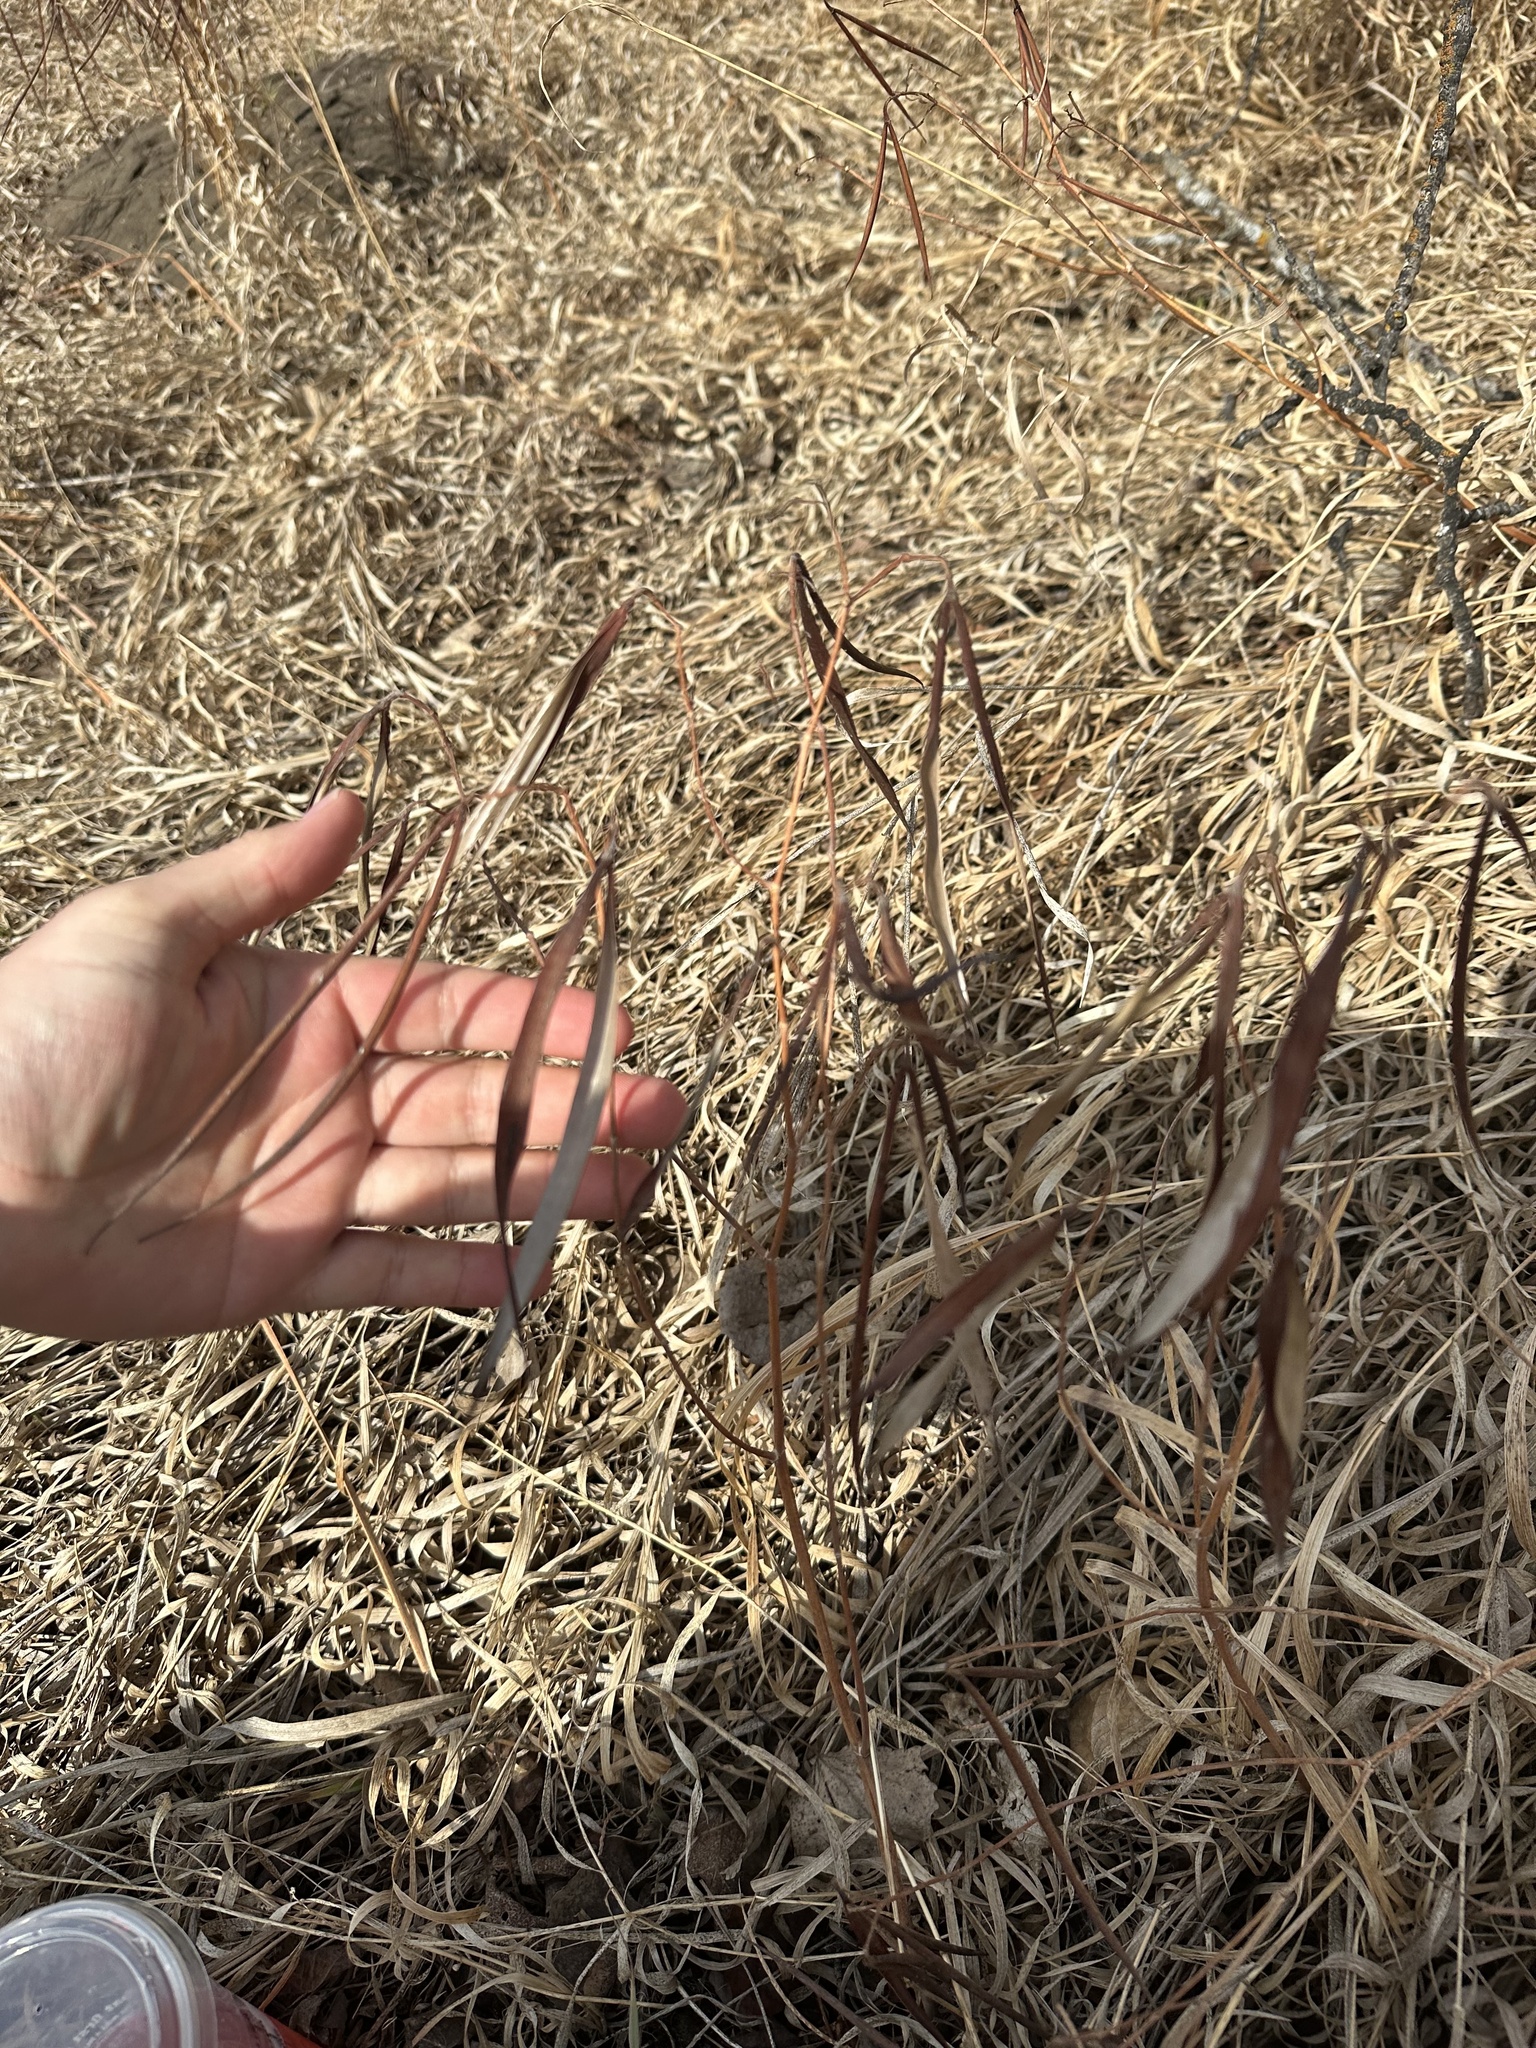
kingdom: Plantae
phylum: Tracheophyta
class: Magnoliopsida
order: Gentianales
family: Apocynaceae
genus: Apocynum
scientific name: Apocynum androsaemifolium
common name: Spreading dogbane
